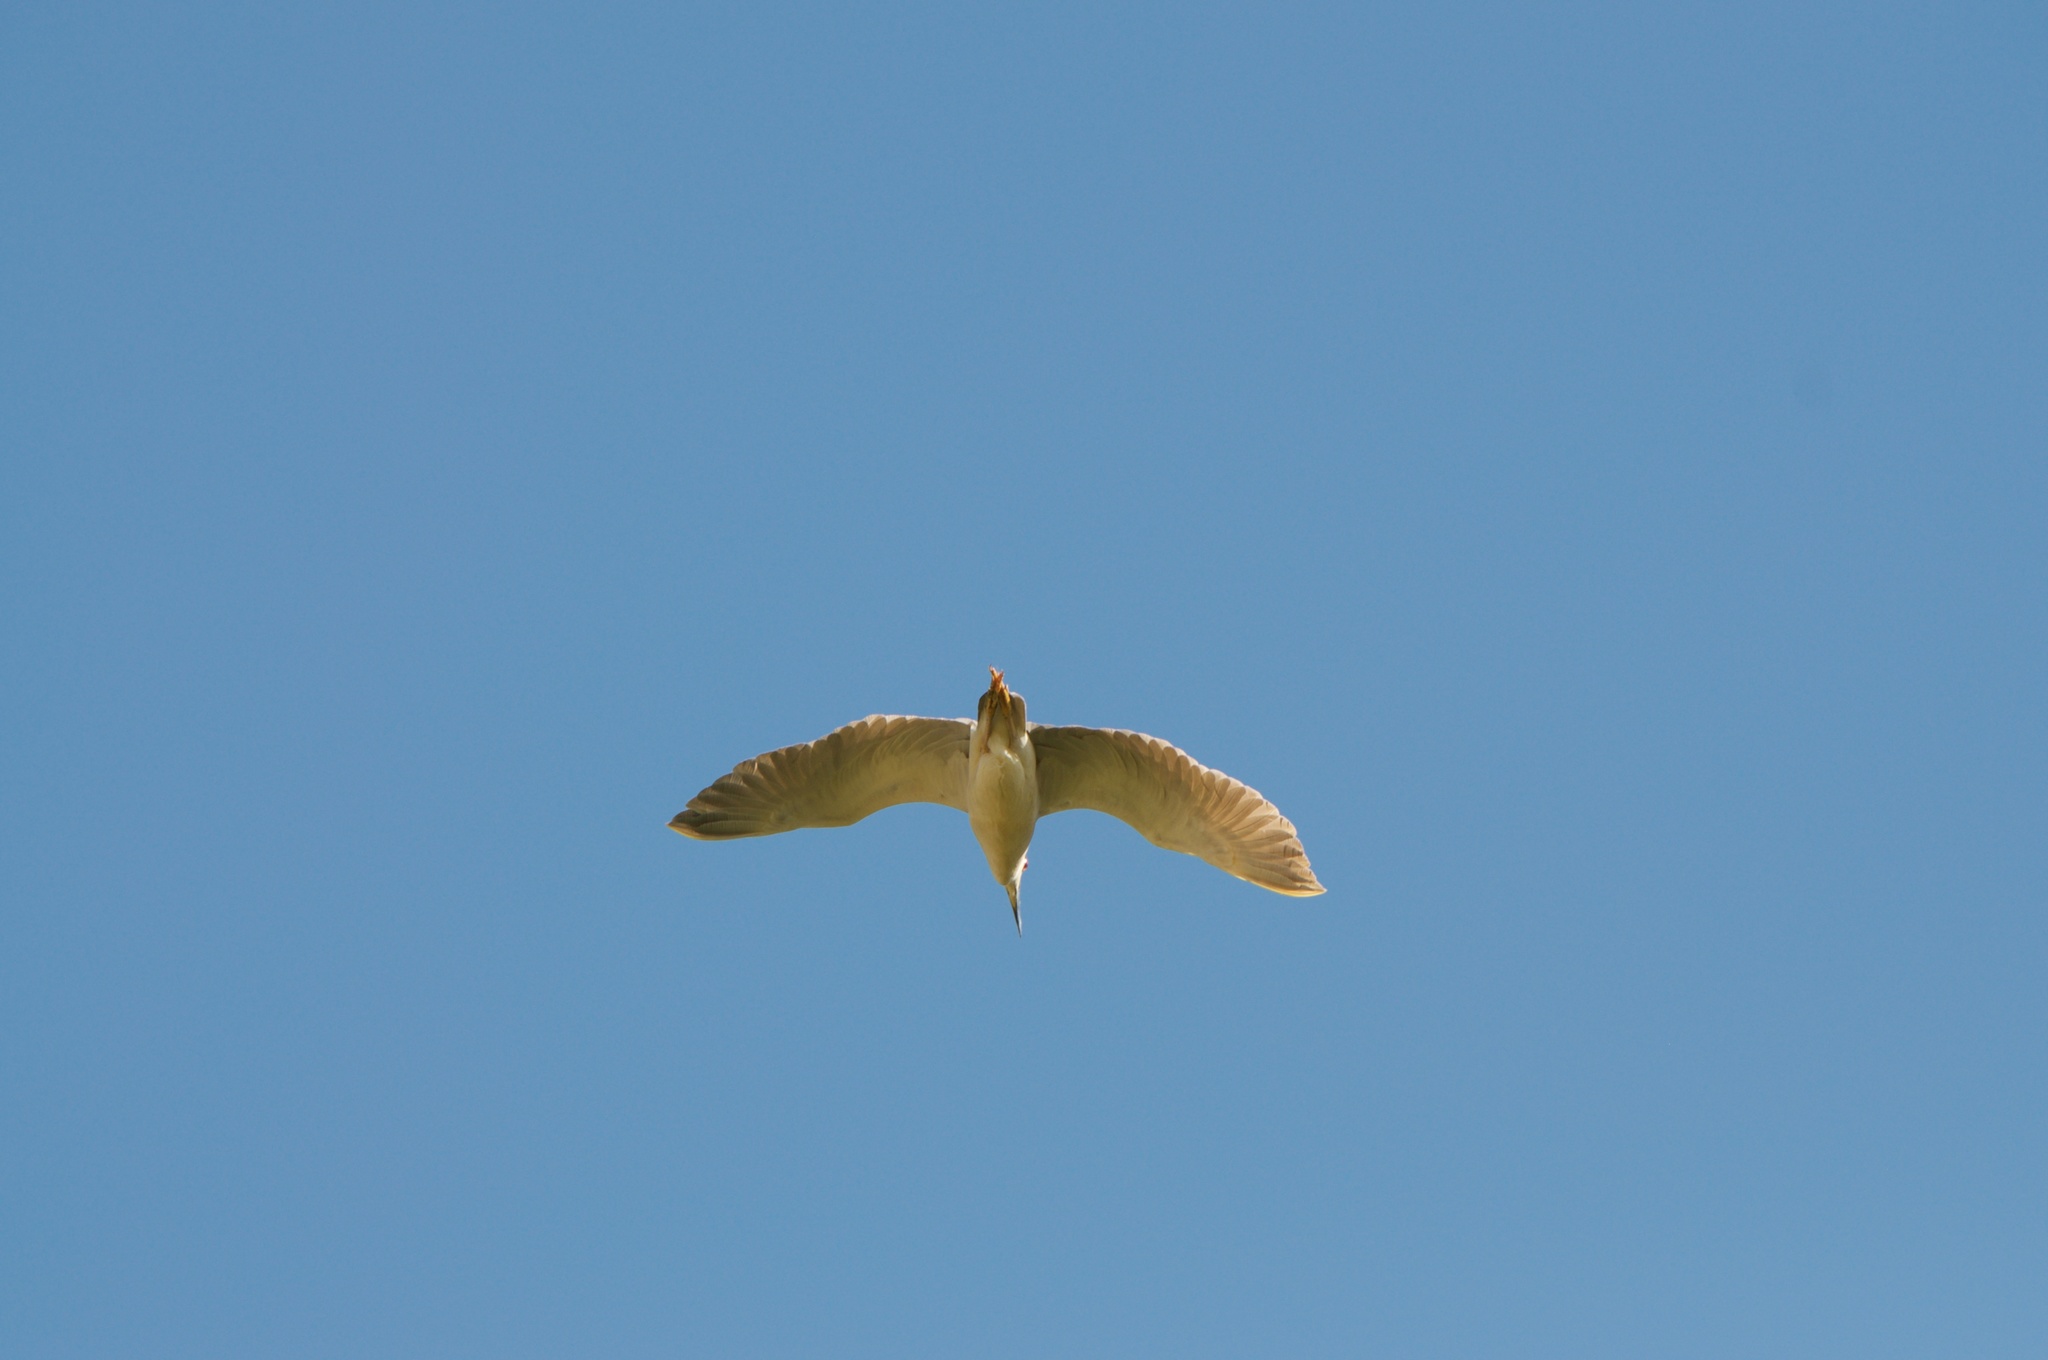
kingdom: Animalia
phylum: Chordata
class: Aves
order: Pelecaniformes
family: Ardeidae
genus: Nycticorax
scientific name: Nycticorax nycticorax
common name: Black-crowned night heron
